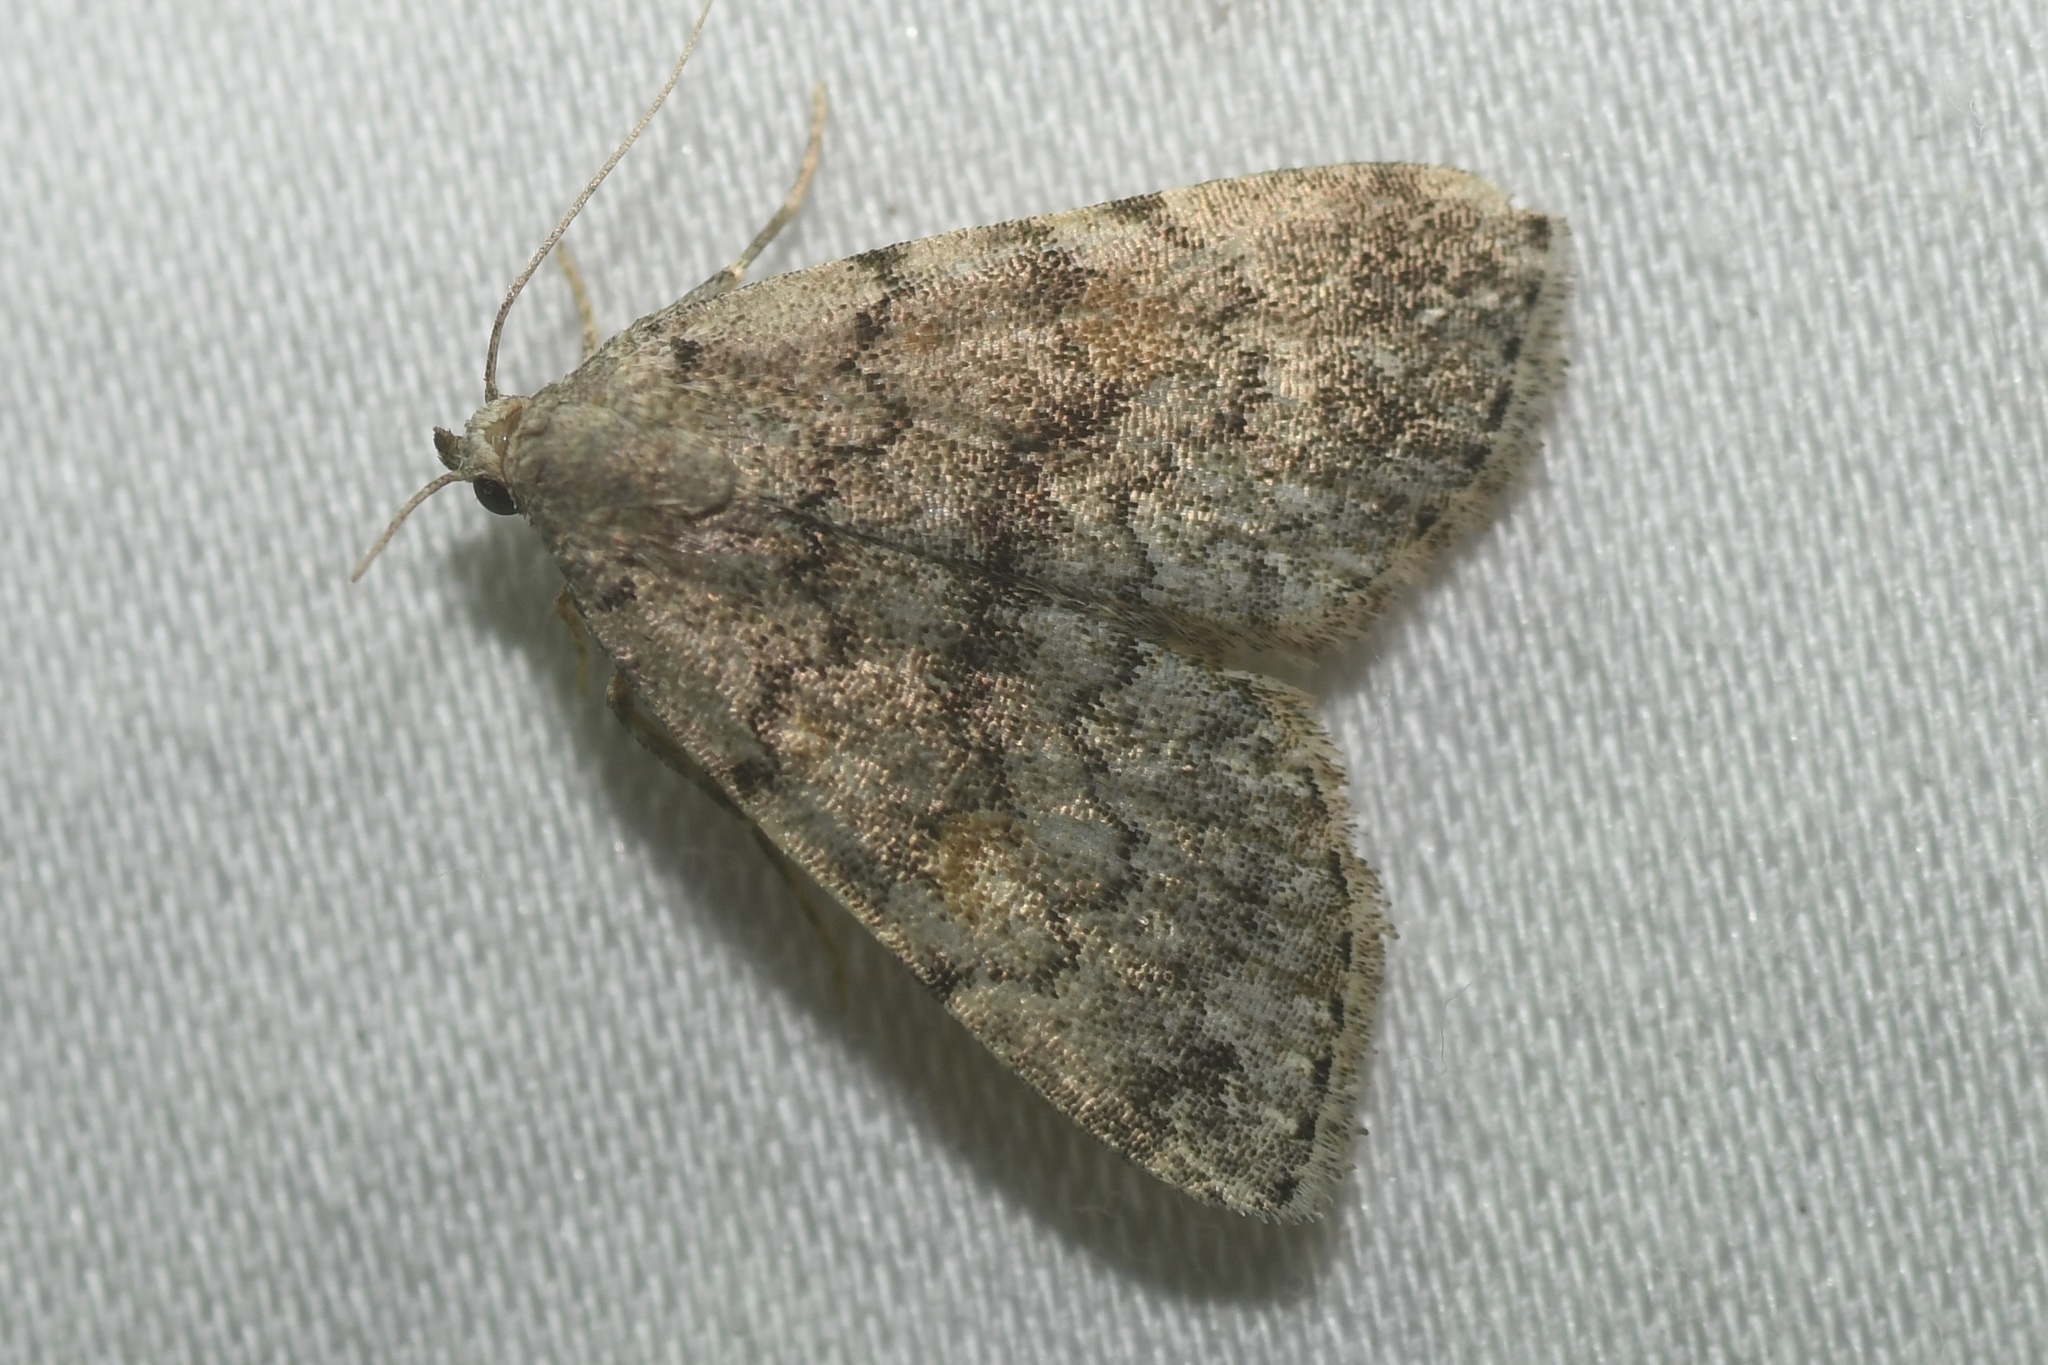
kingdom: Animalia
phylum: Arthropoda
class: Insecta
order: Lepidoptera
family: Erebidae
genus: Idia
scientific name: Idia aemula
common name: Common idia moth
